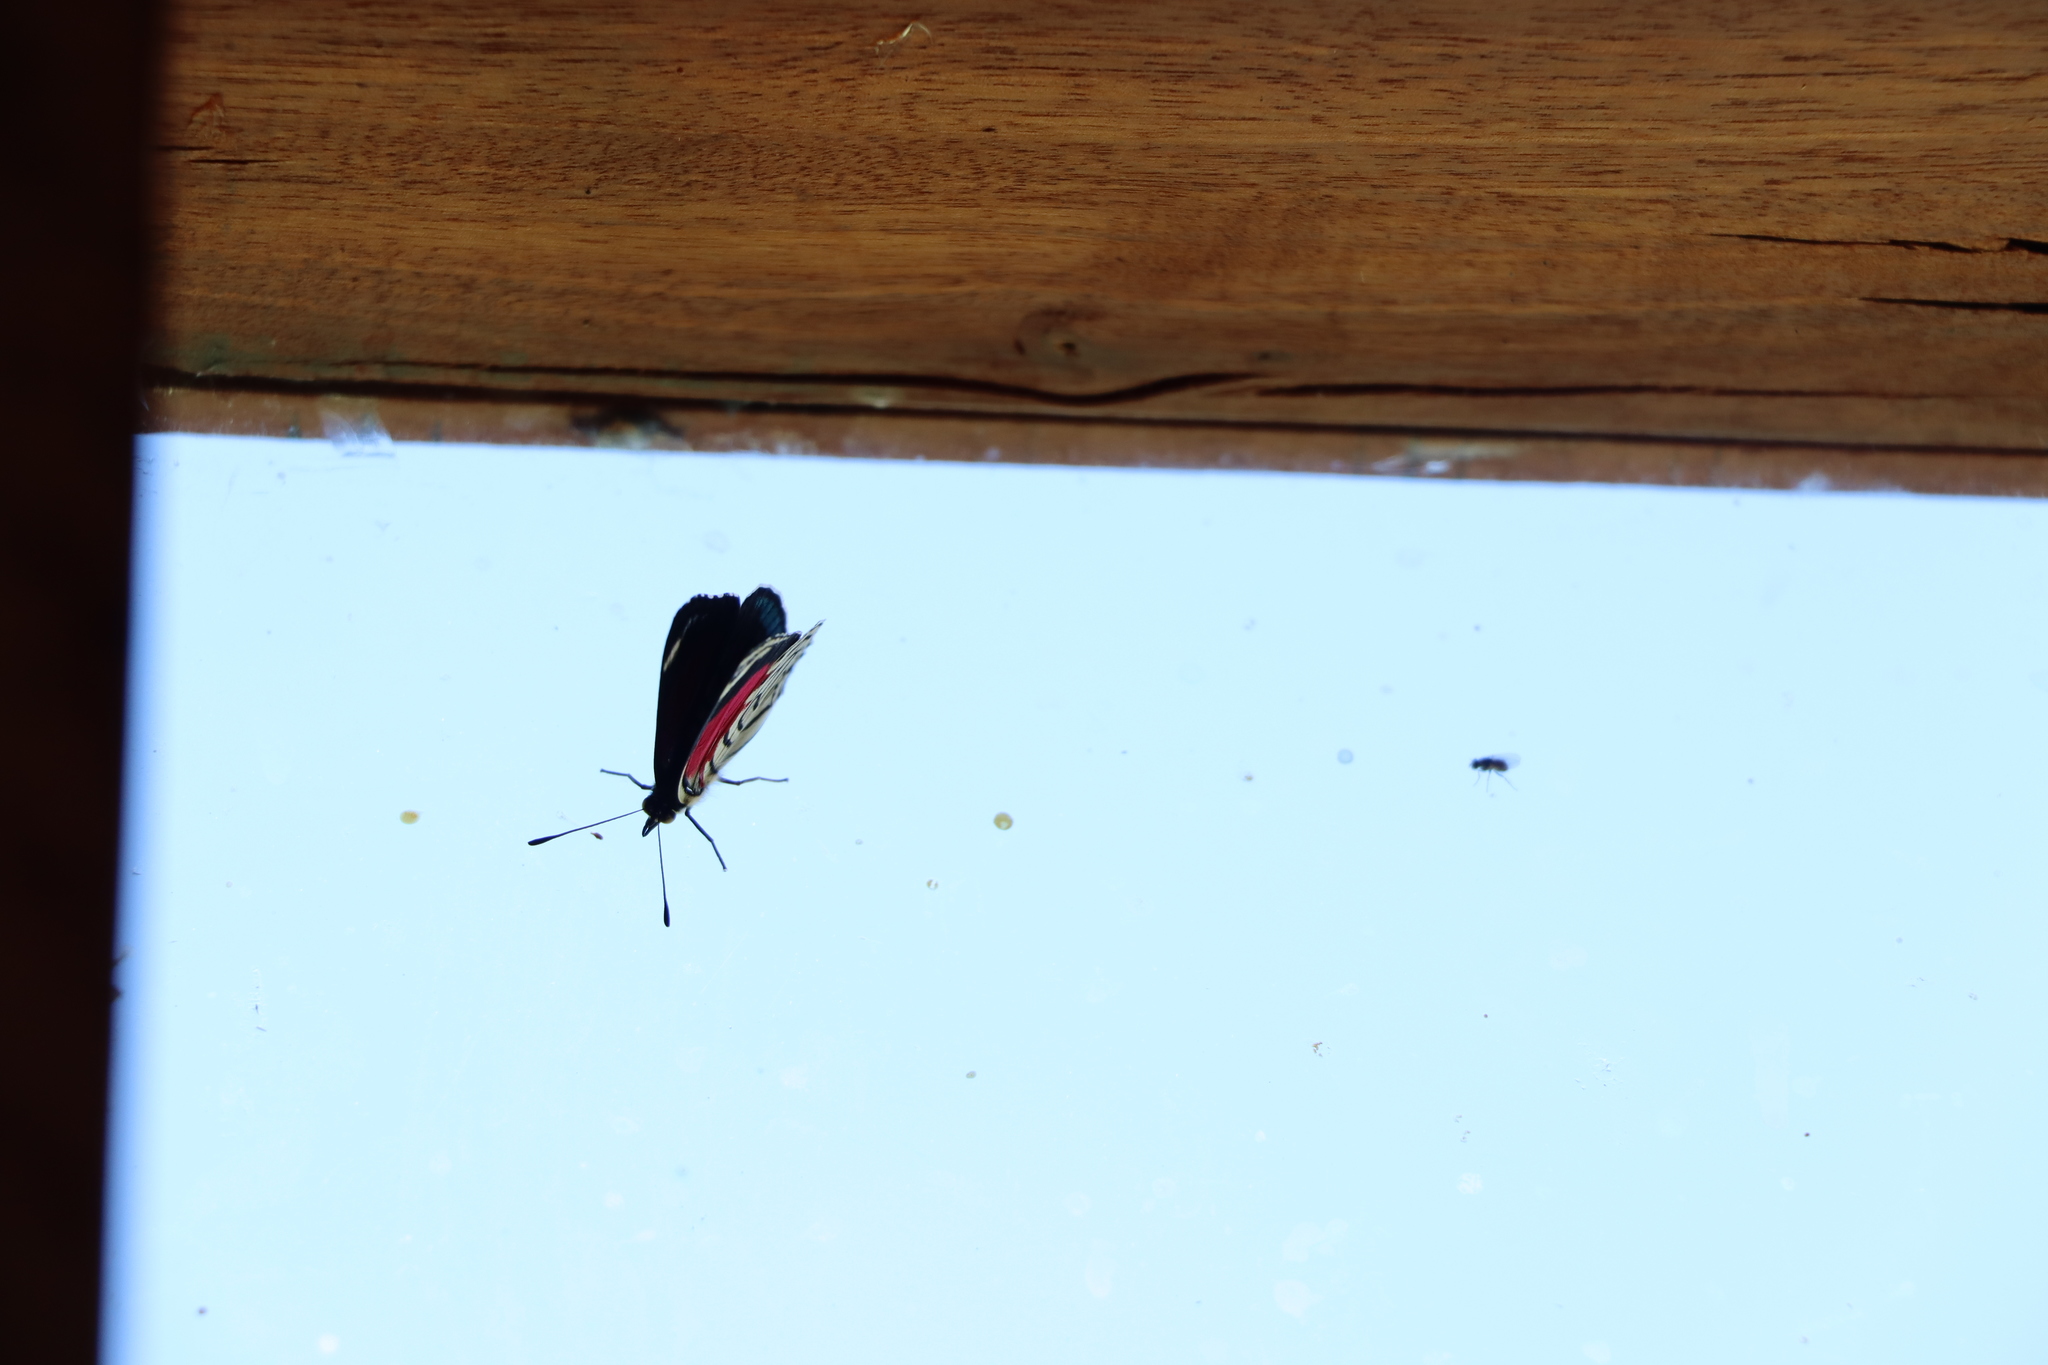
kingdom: Animalia
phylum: Arthropoda
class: Insecta
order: Lepidoptera
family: Nymphalidae
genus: Diaethria
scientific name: Diaethria candrena
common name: Number eighty
